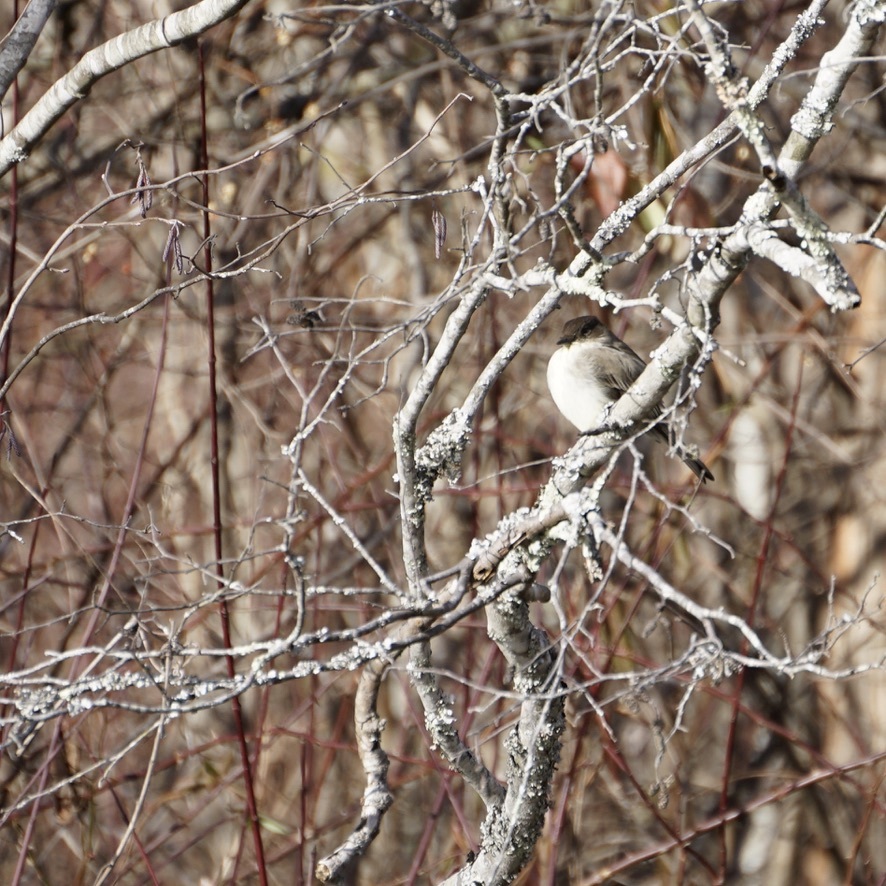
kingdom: Animalia
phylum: Chordata
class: Aves
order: Passeriformes
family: Tyrannidae
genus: Sayornis
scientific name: Sayornis phoebe
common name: Eastern phoebe
